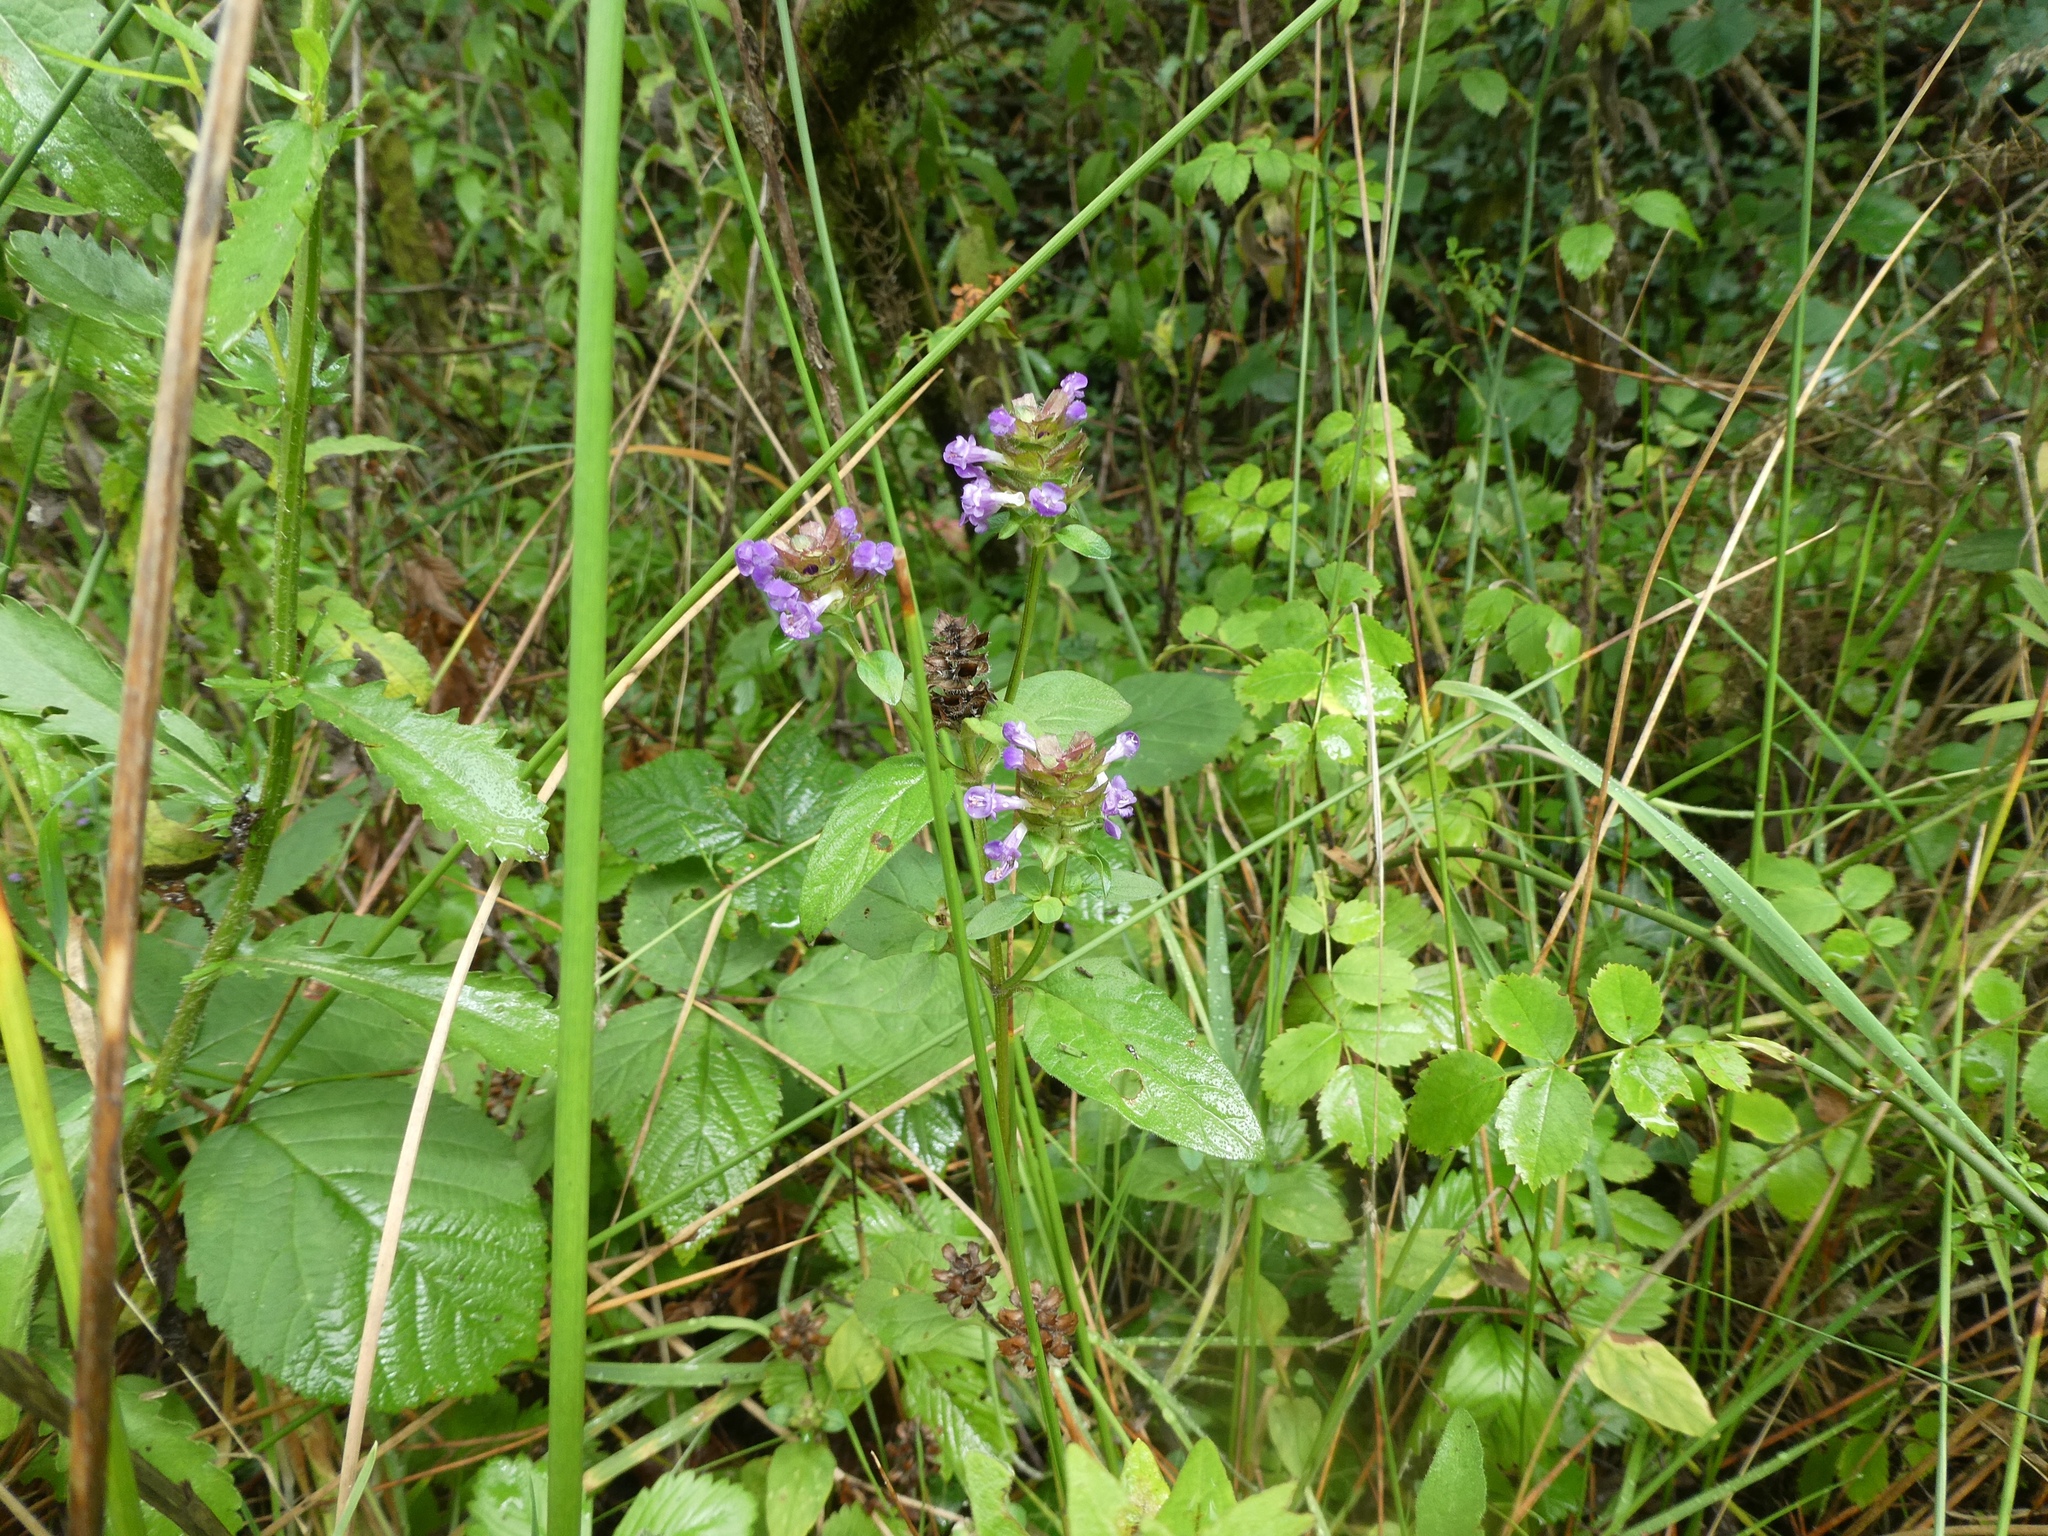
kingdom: Plantae
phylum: Tracheophyta
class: Magnoliopsida
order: Lamiales
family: Lamiaceae
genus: Prunella
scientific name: Prunella vulgaris
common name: Heal-all
